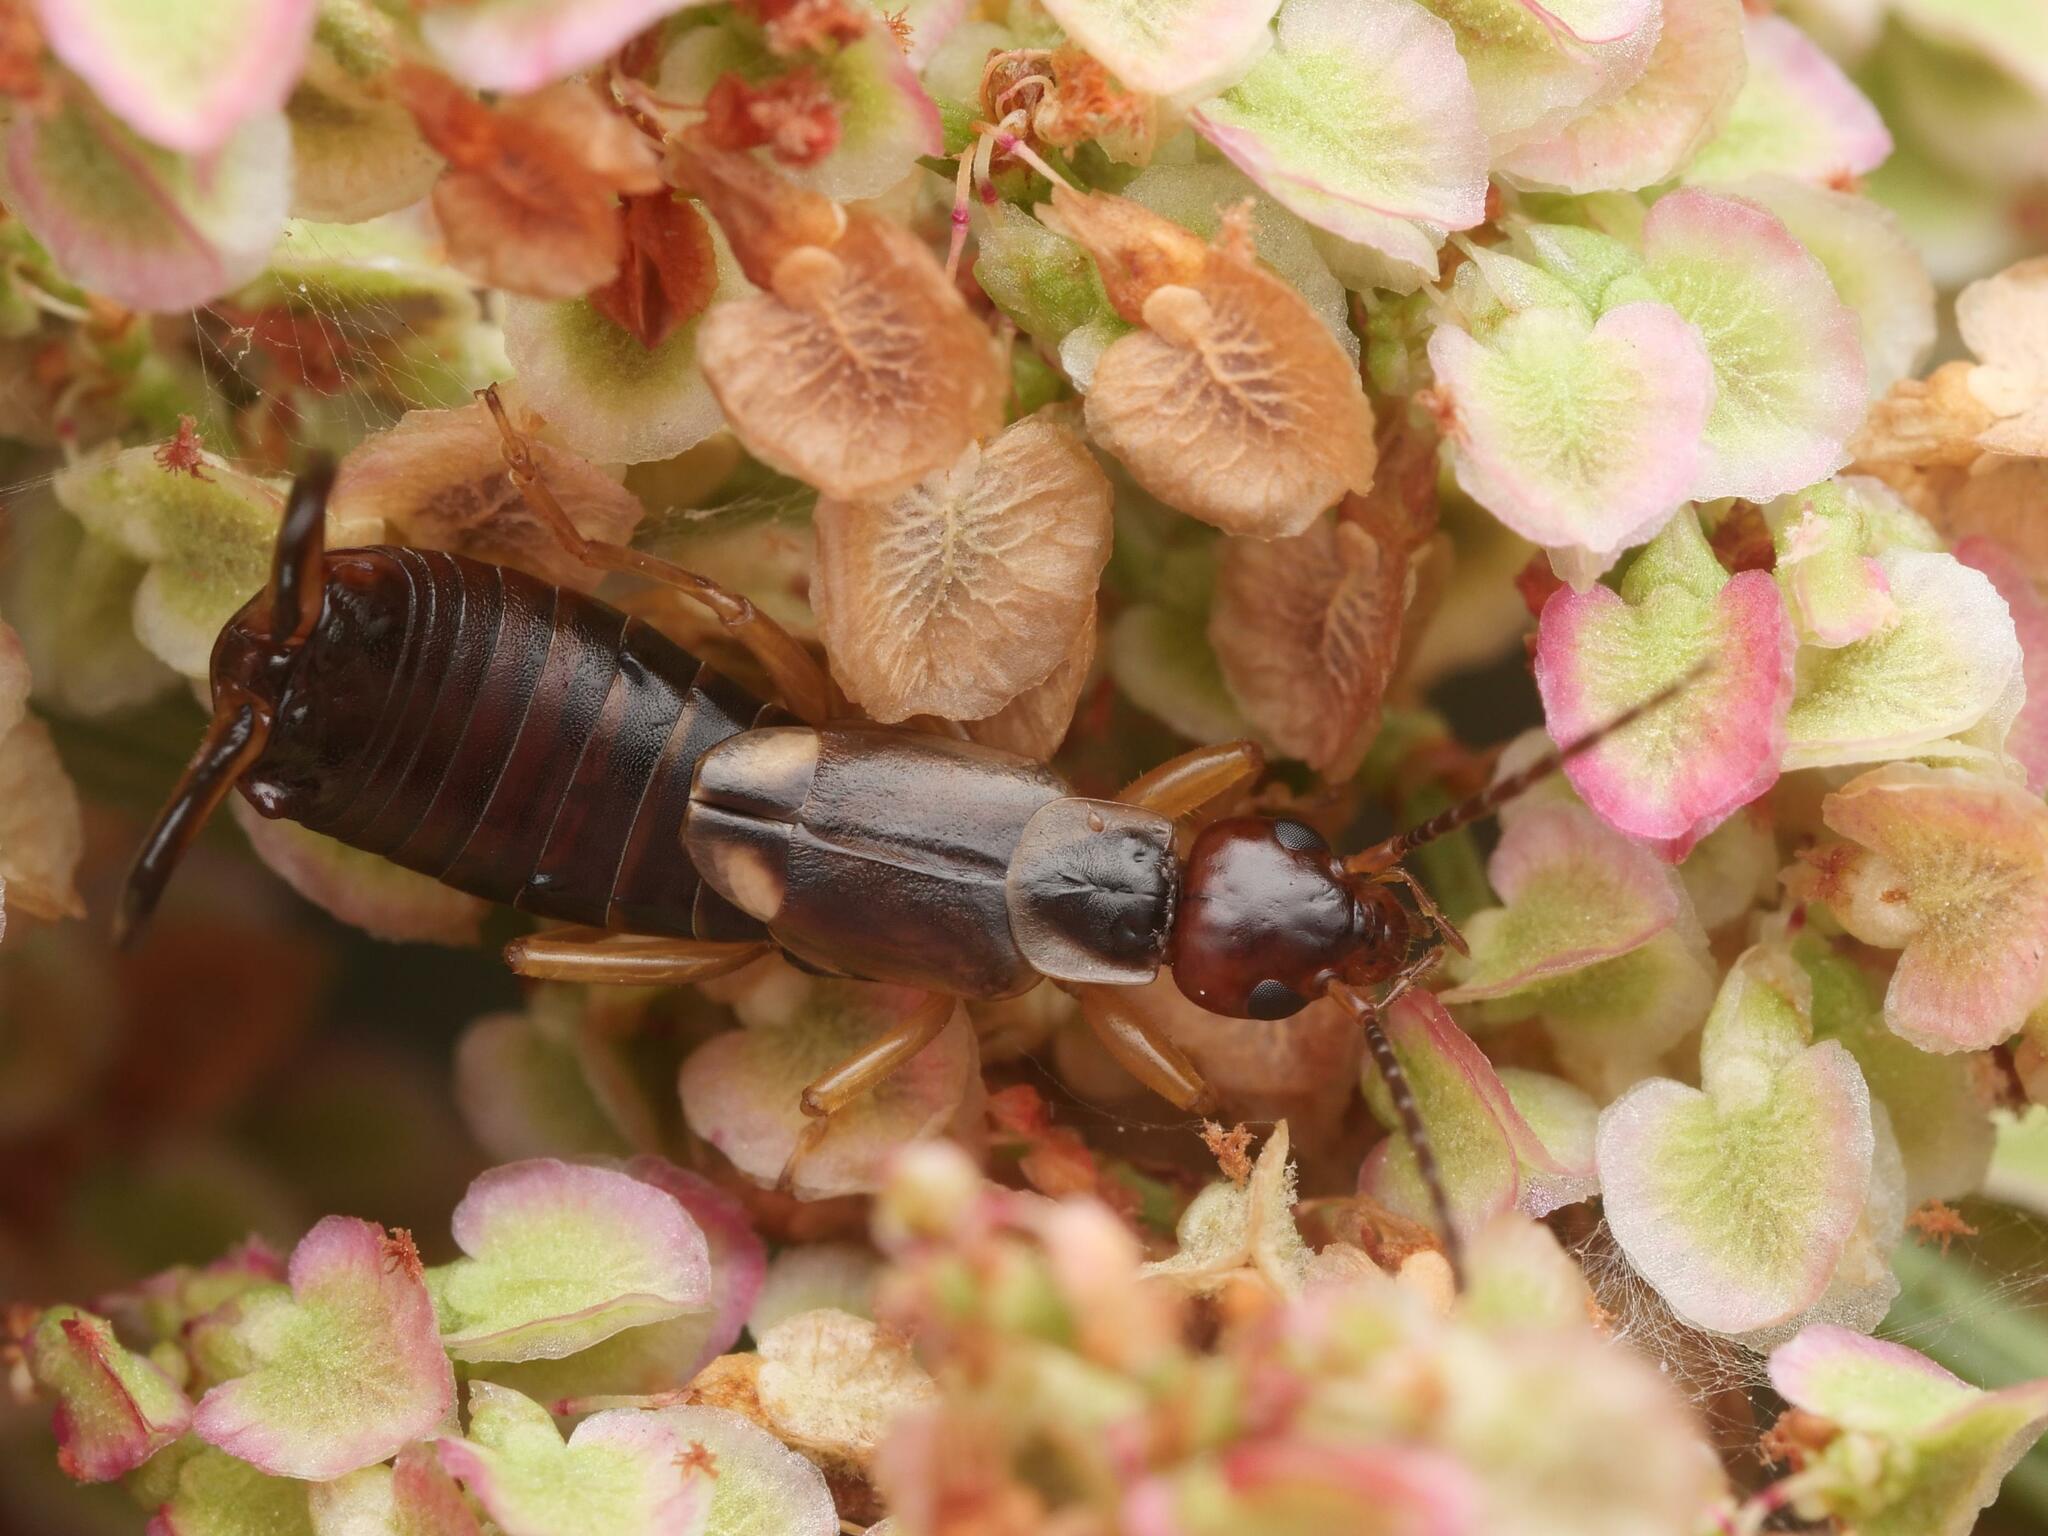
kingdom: Animalia
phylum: Arthropoda
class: Insecta
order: Dermaptera
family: Forficulidae
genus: Forficula
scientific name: Forficula
